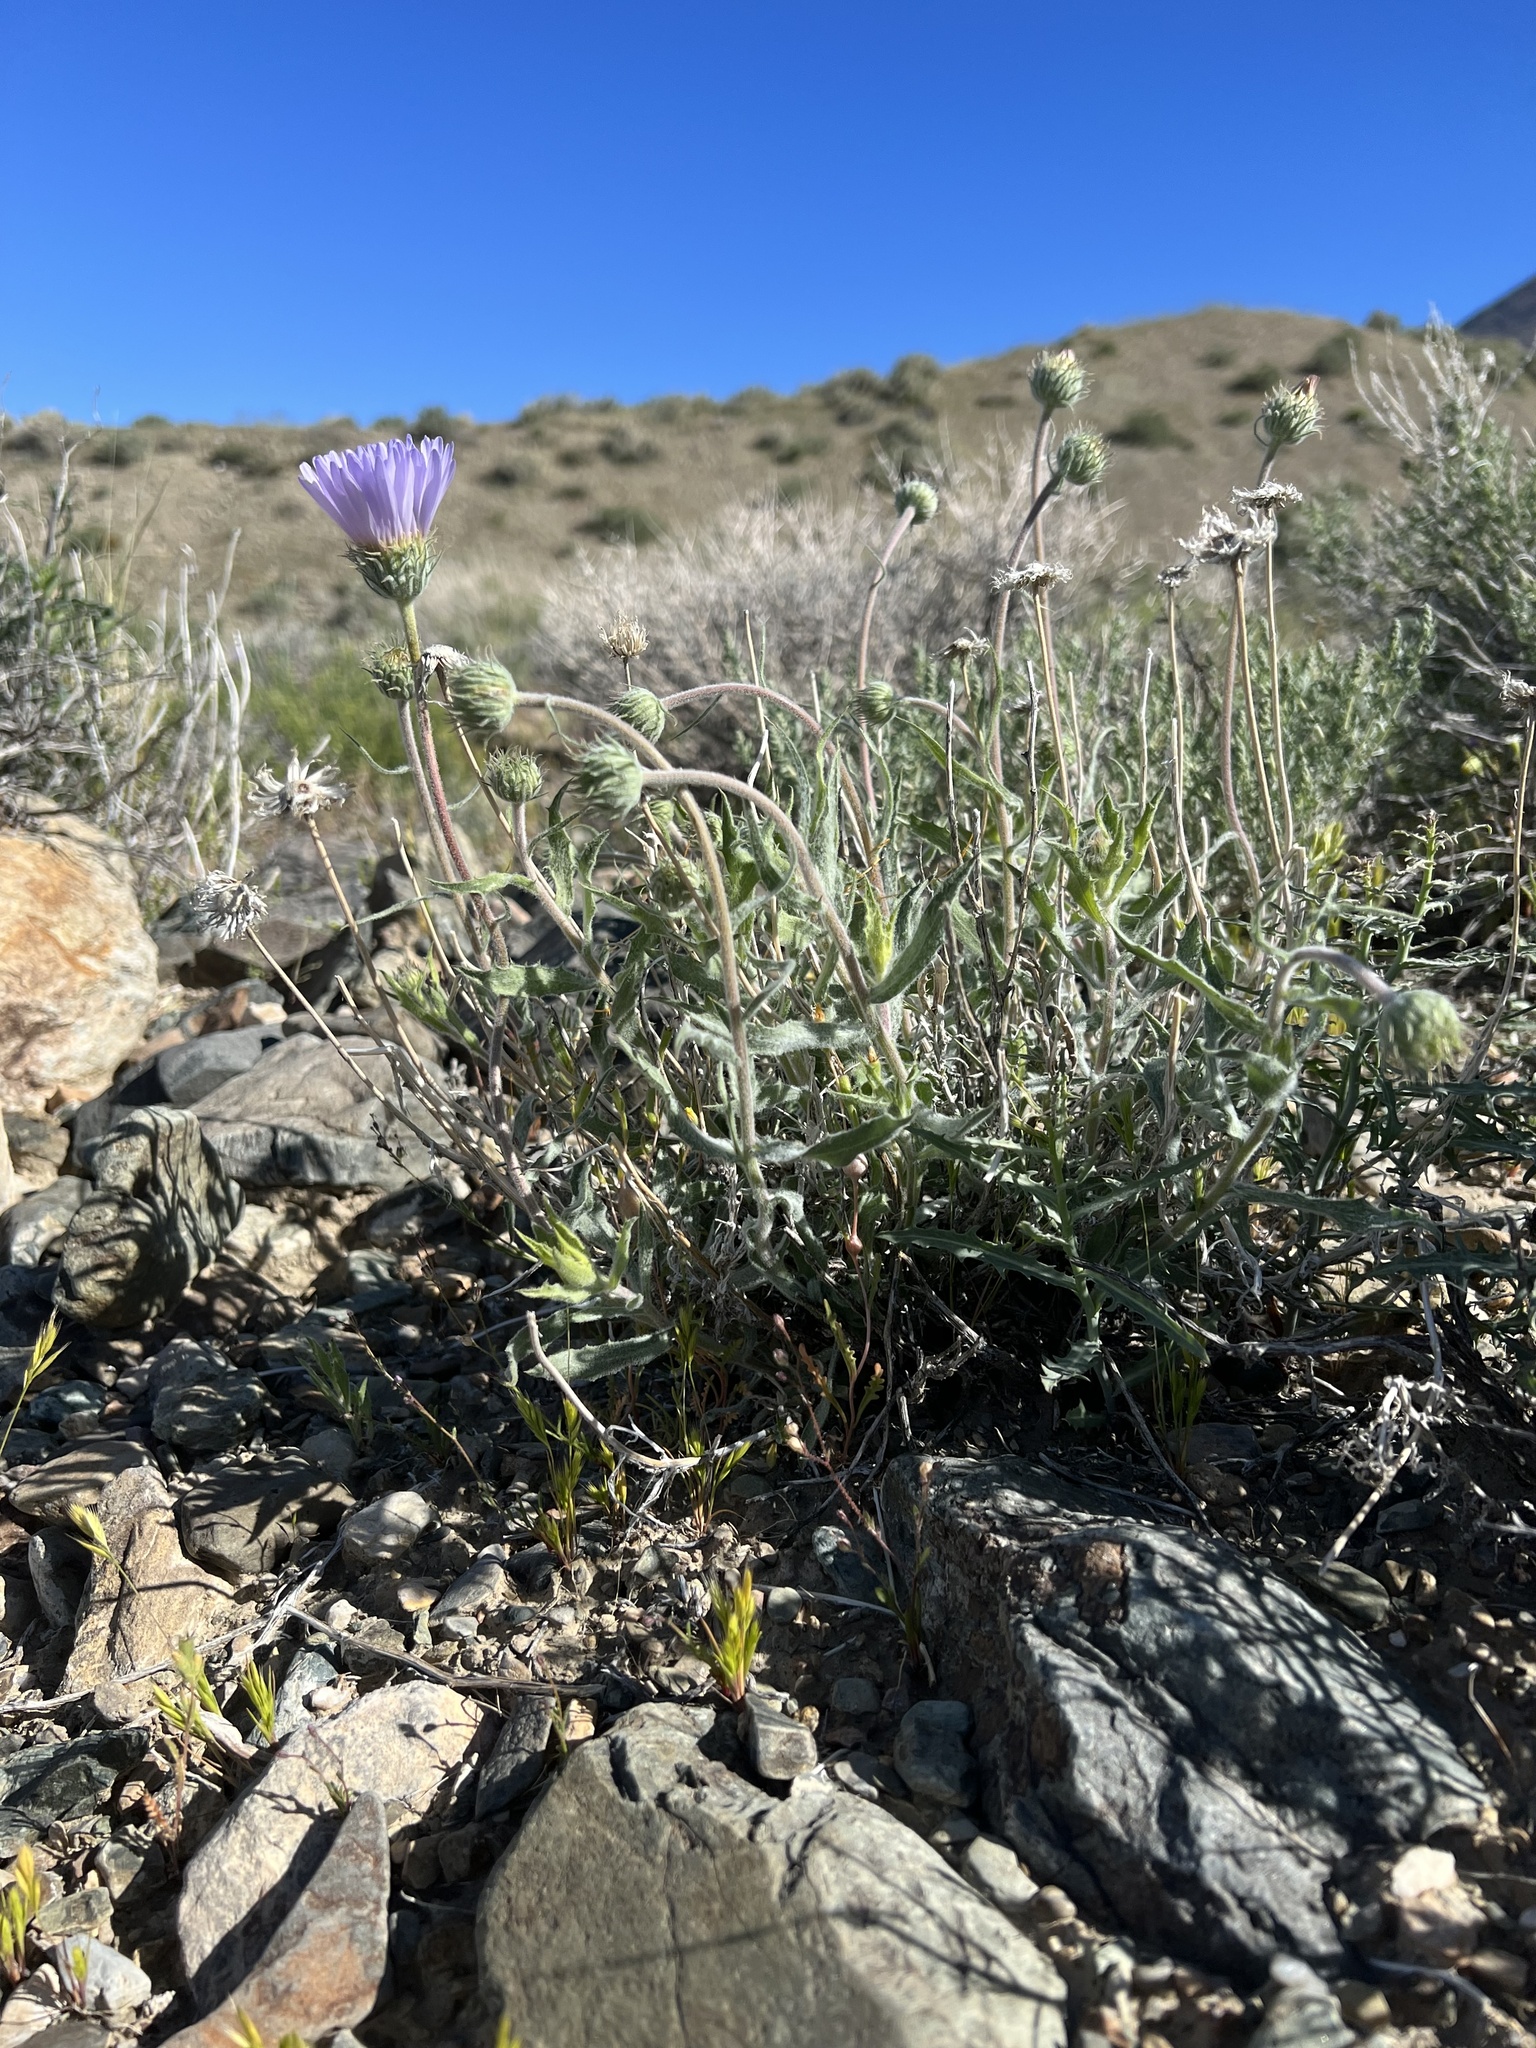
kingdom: Plantae
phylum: Tracheophyta
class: Magnoliopsida
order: Asterales
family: Asteraceae
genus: Xylorhiza
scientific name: Xylorhiza tortifolia
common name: Hurt-leaf woody-aster
